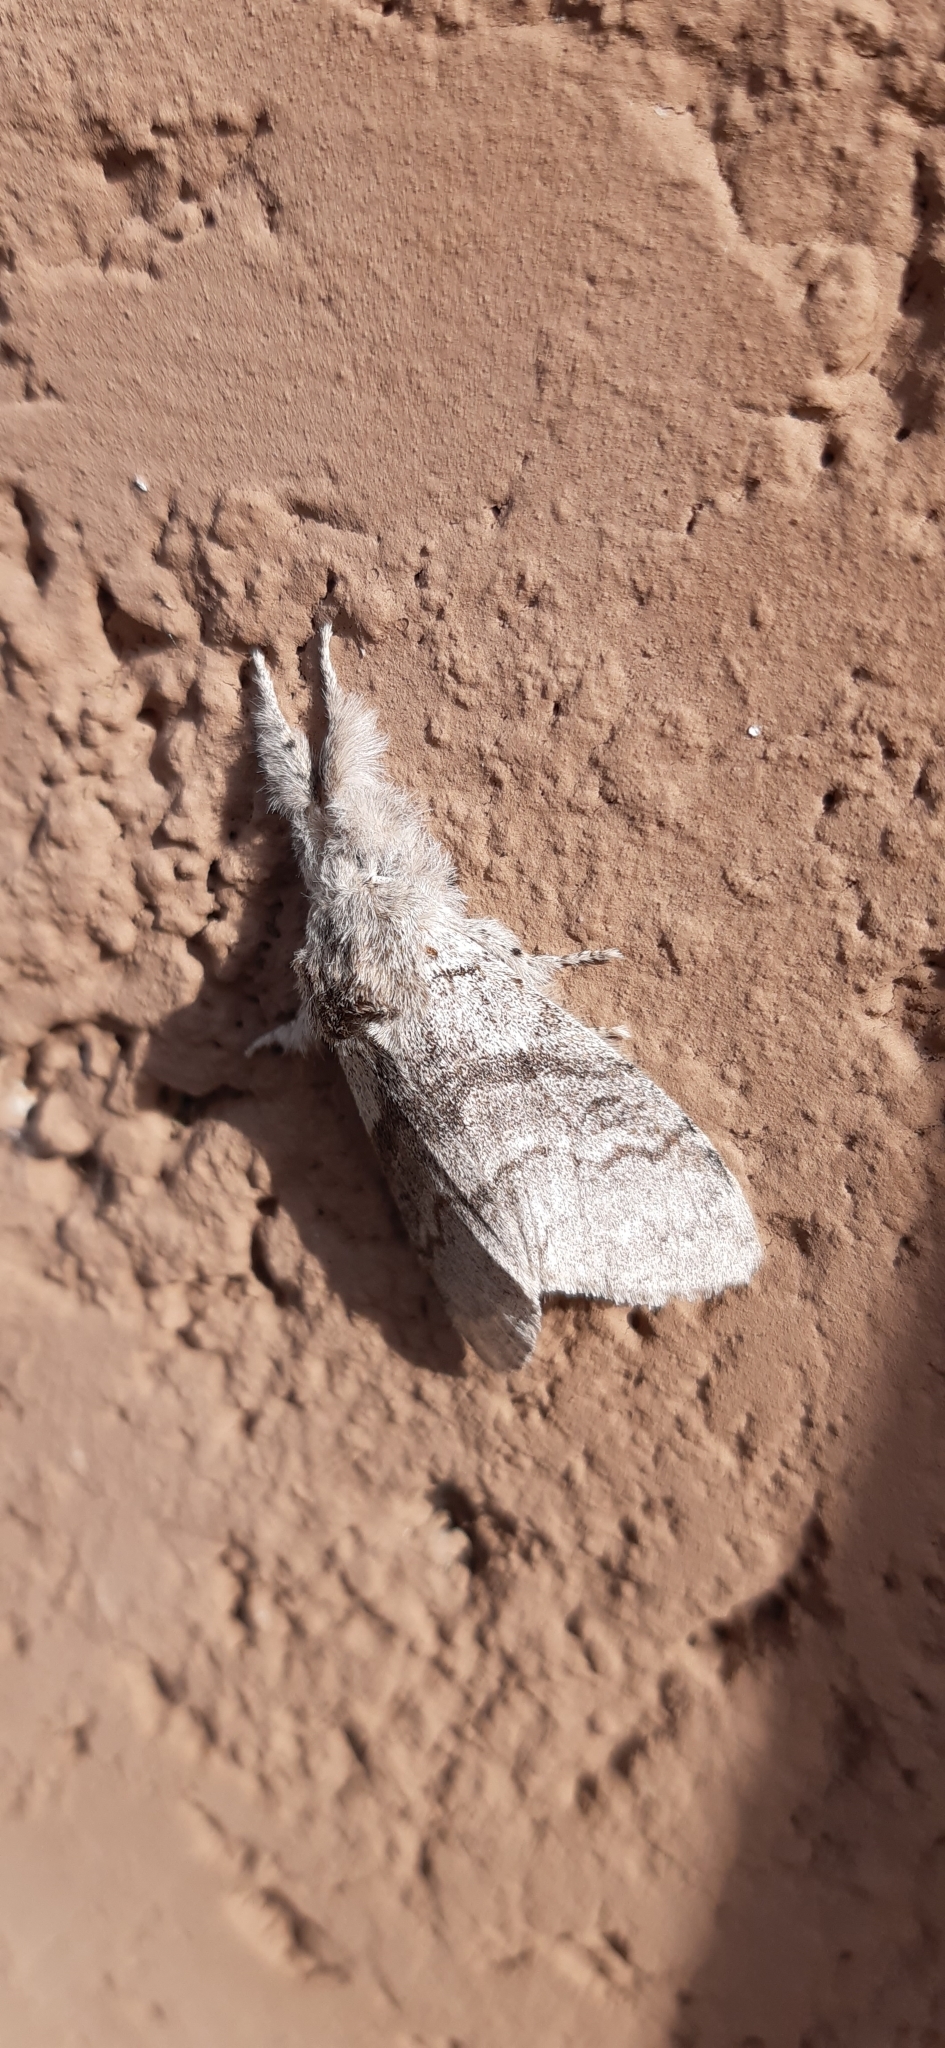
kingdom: Animalia
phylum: Arthropoda
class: Insecta
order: Lepidoptera
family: Erebidae
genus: Calliteara
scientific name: Calliteara pudibunda
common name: Pale tussock
